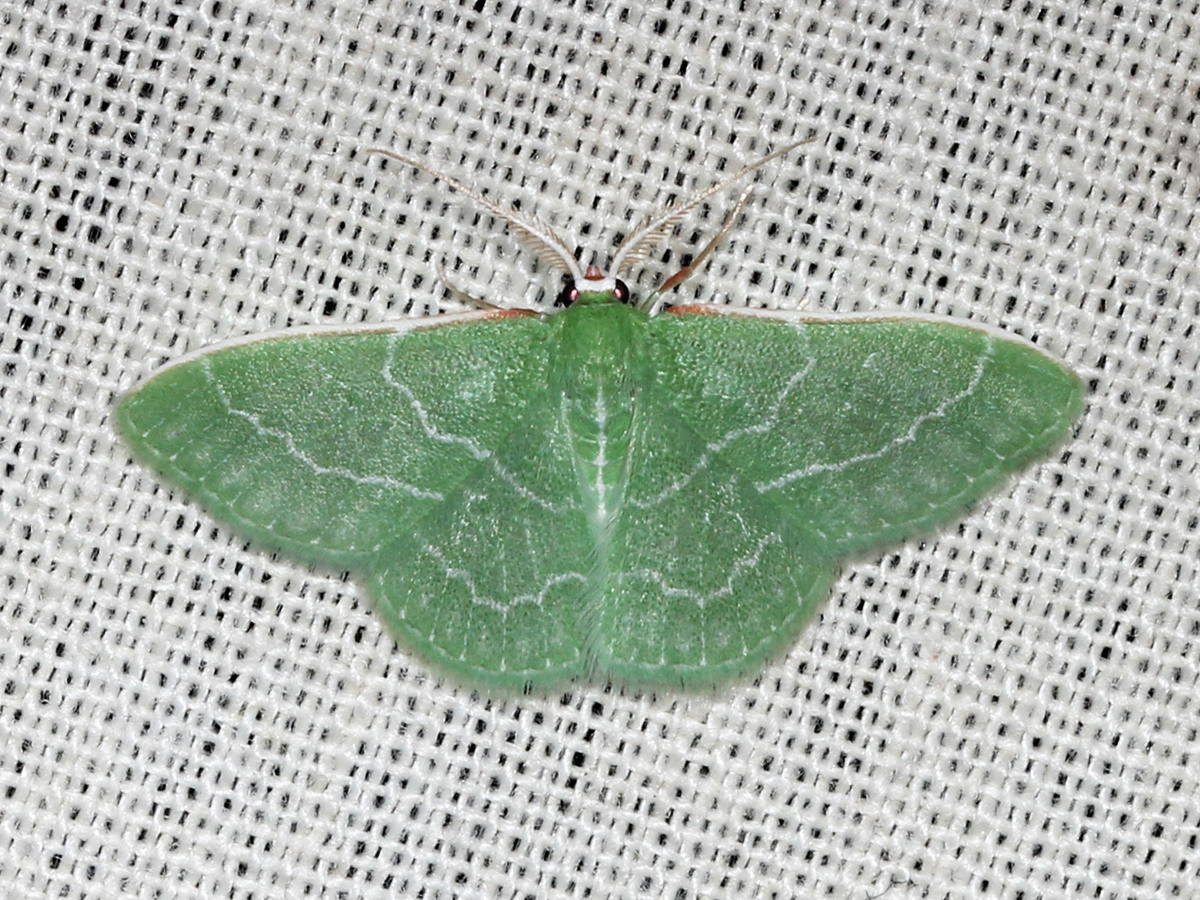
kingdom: Animalia
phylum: Arthropoda
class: Insecta
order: Lepidoptera
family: Geometridae
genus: Synchlora
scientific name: Synchlora aerata
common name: Wavy-lined emerald
